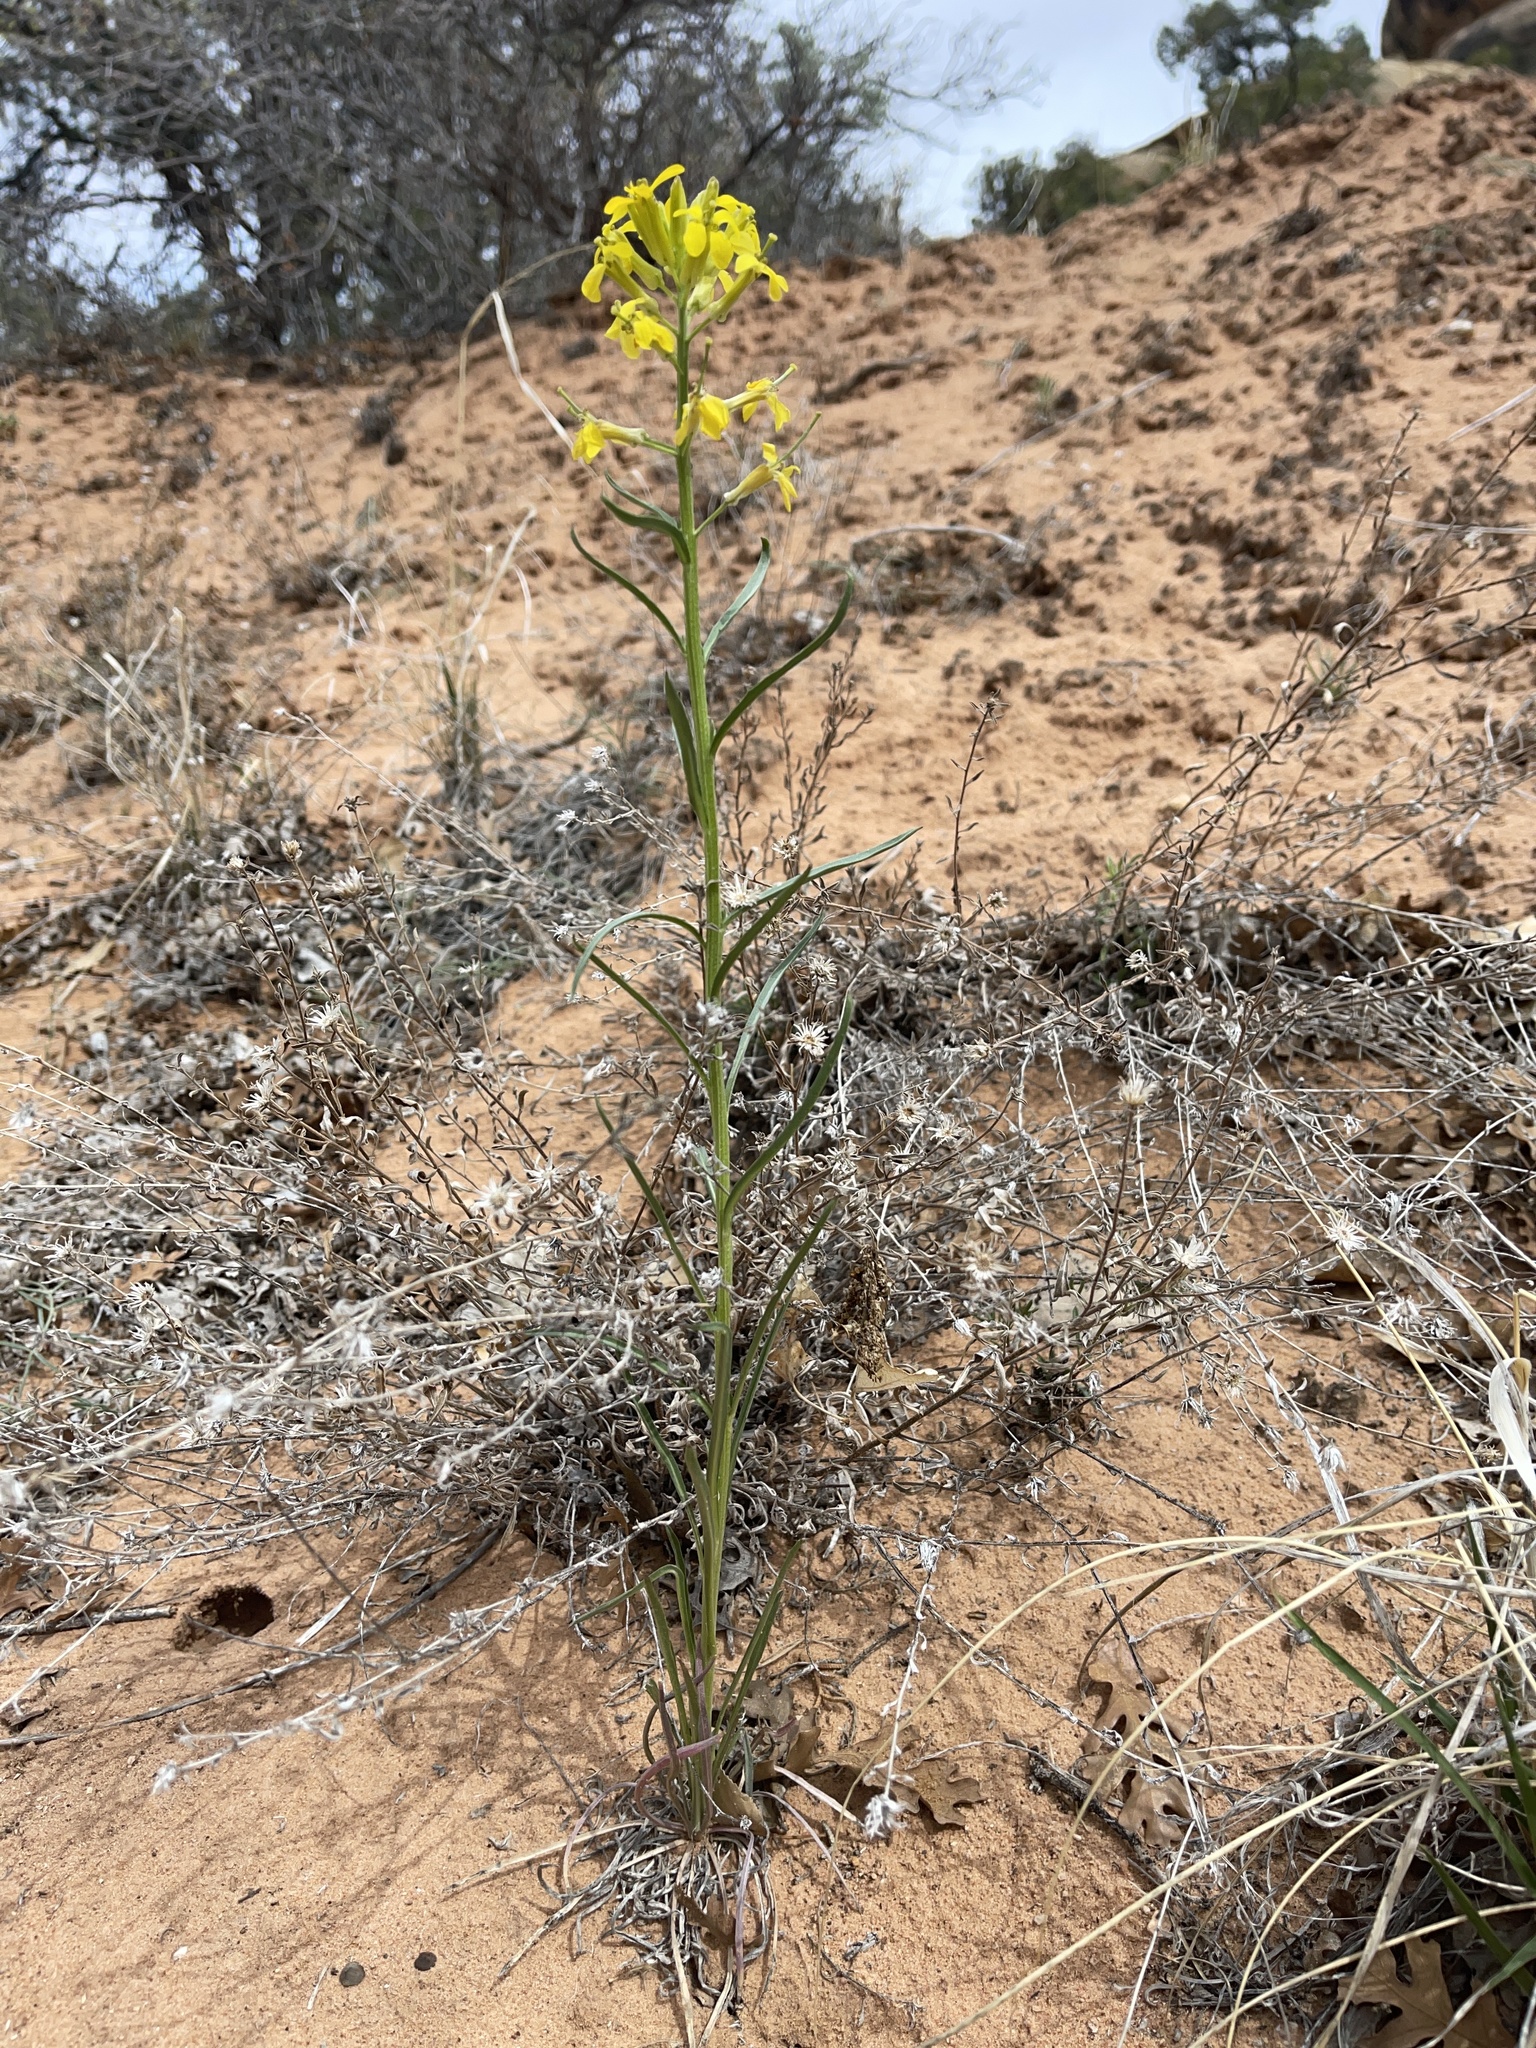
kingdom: Plantae
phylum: Tracheophyta
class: Magnoliopsida
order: Brassicales
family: Brassicaceae
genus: Erysimum
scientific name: Erysimum capitatum
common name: Western wallflower
